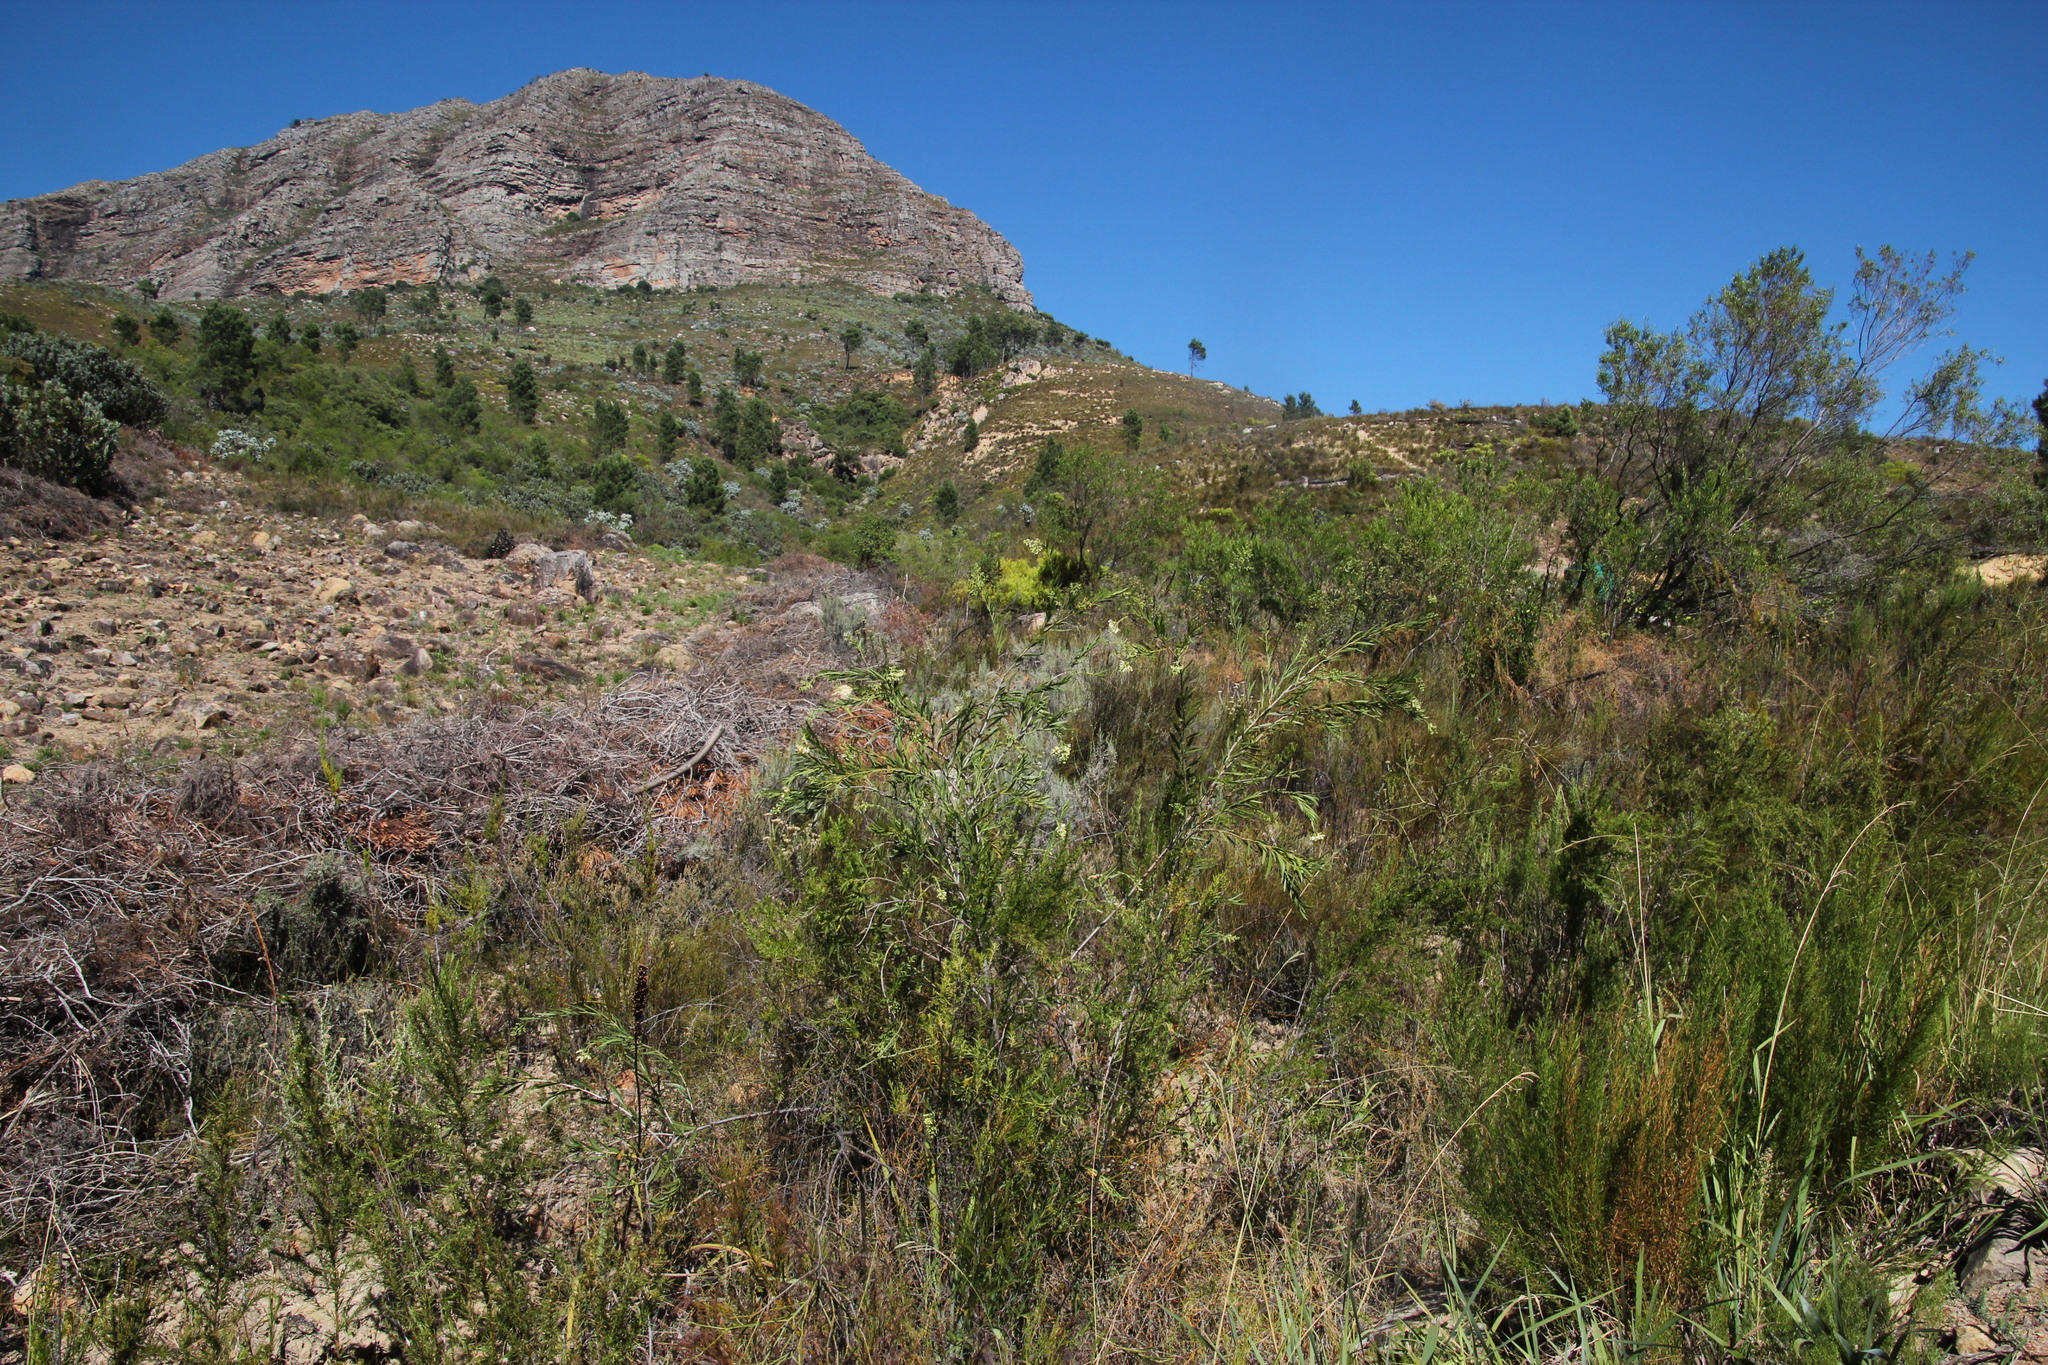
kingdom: Plantae
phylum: Tracheophyta
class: Magnoliopsida
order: Lamiales
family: Scrophulariaceae
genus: Freylinia
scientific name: Freylinia lanceolata
